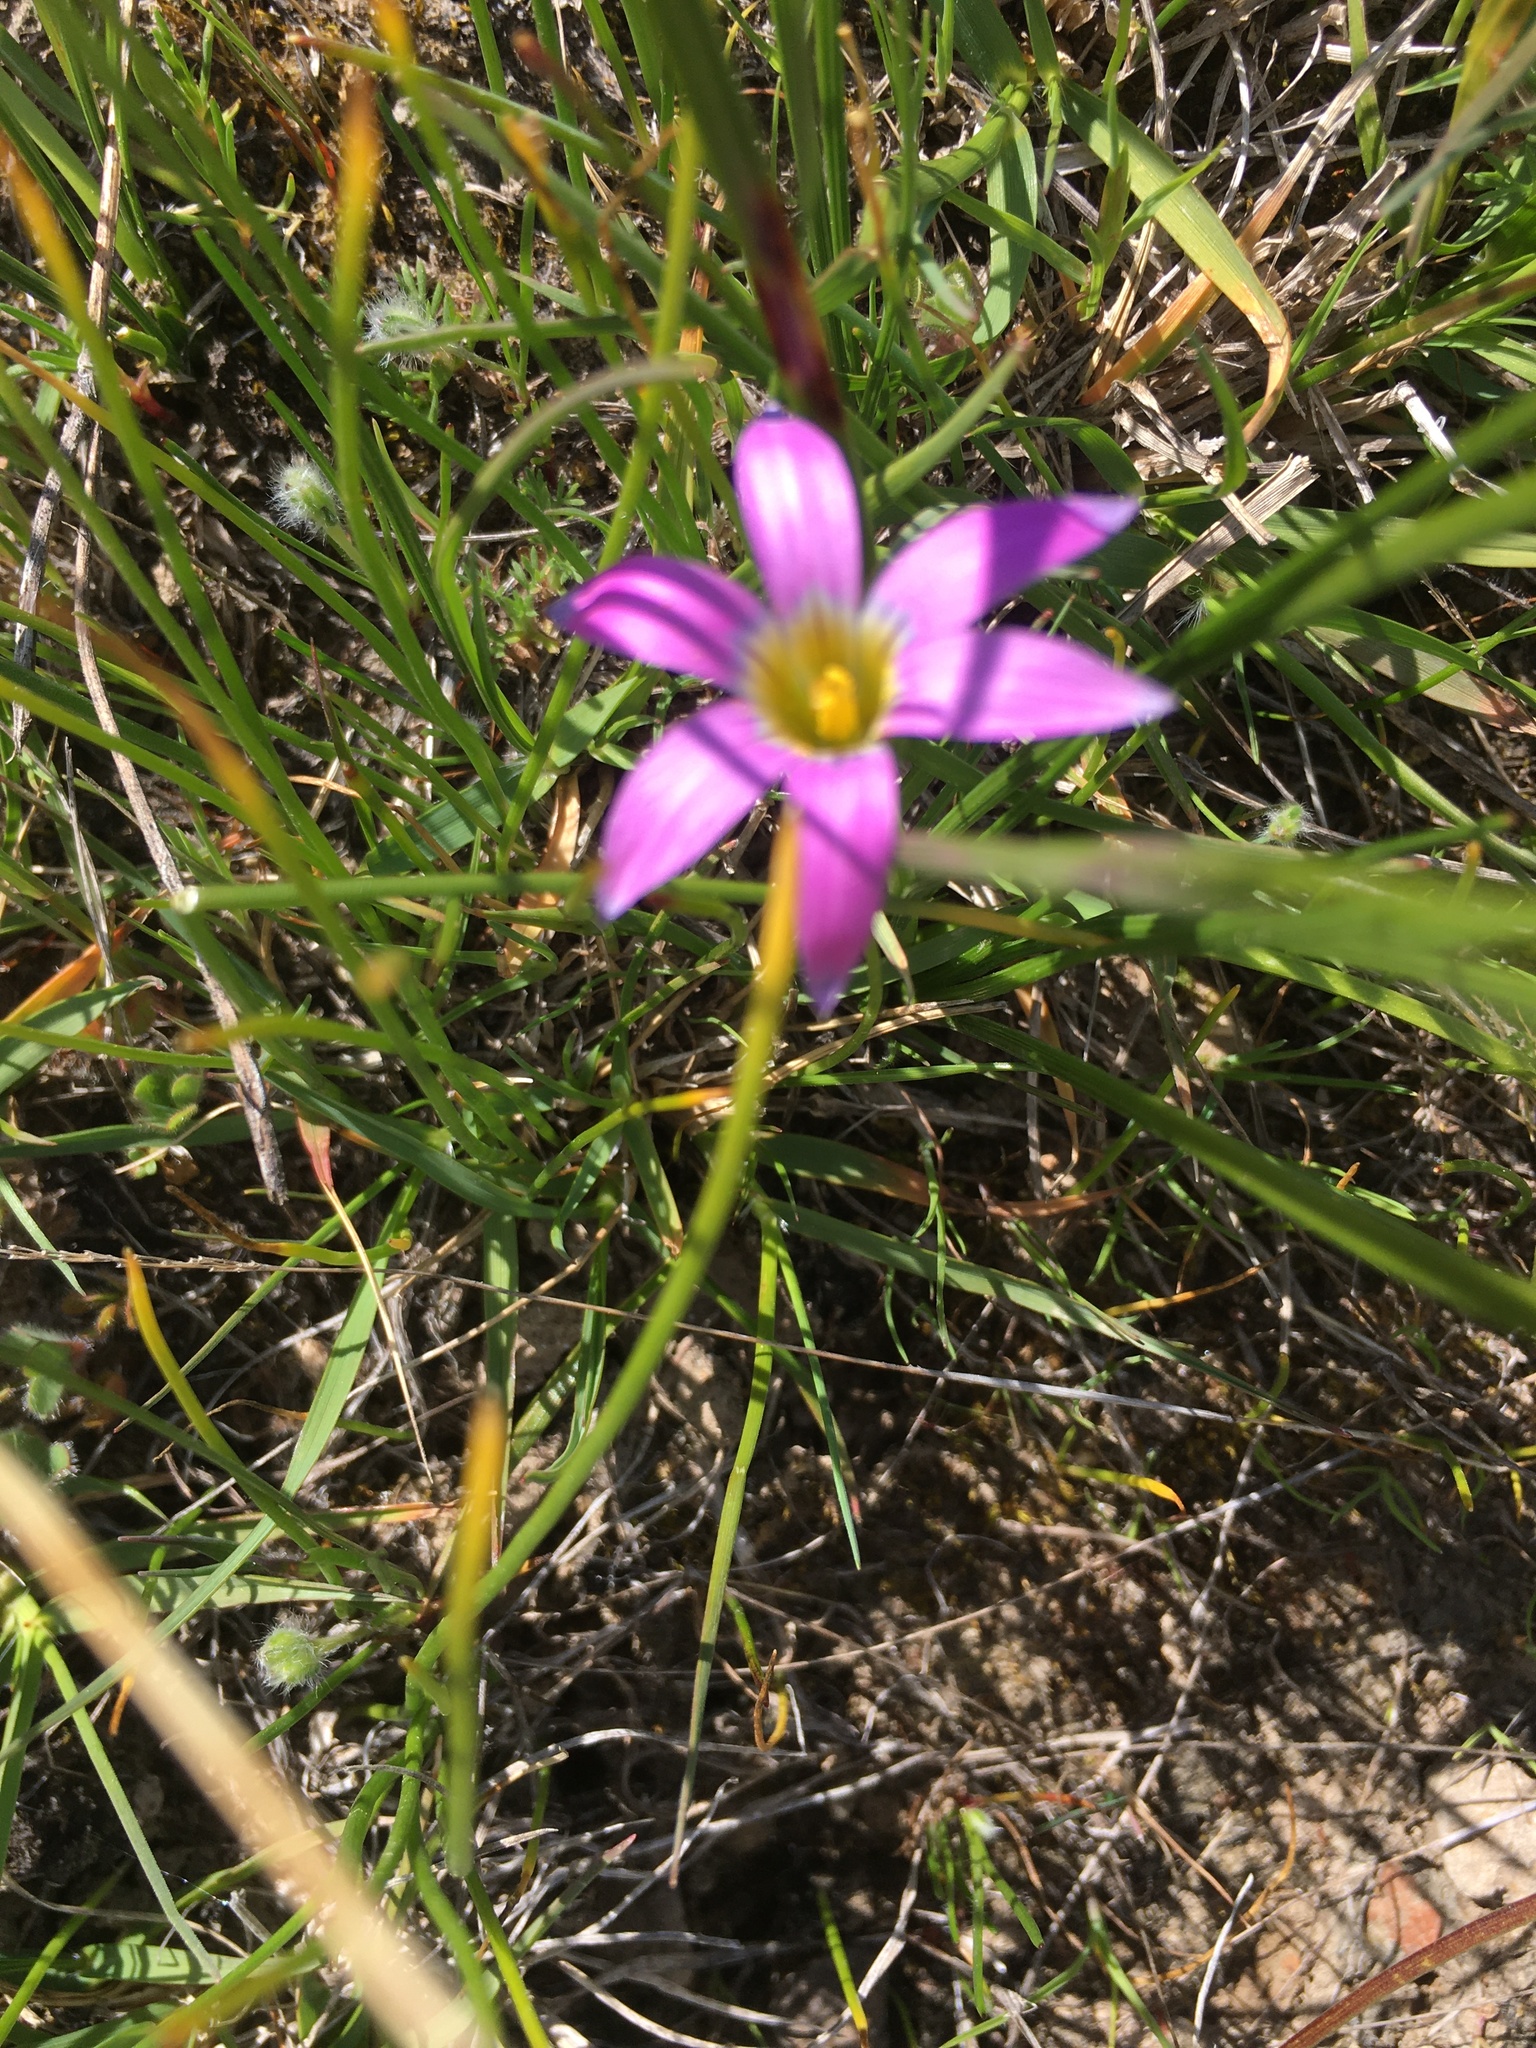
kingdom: Plantae
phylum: Tracheophyta
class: Liliopsida
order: Asparagales
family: Iridaceae
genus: Romulea
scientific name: Romulea rosea
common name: Oniongrass
